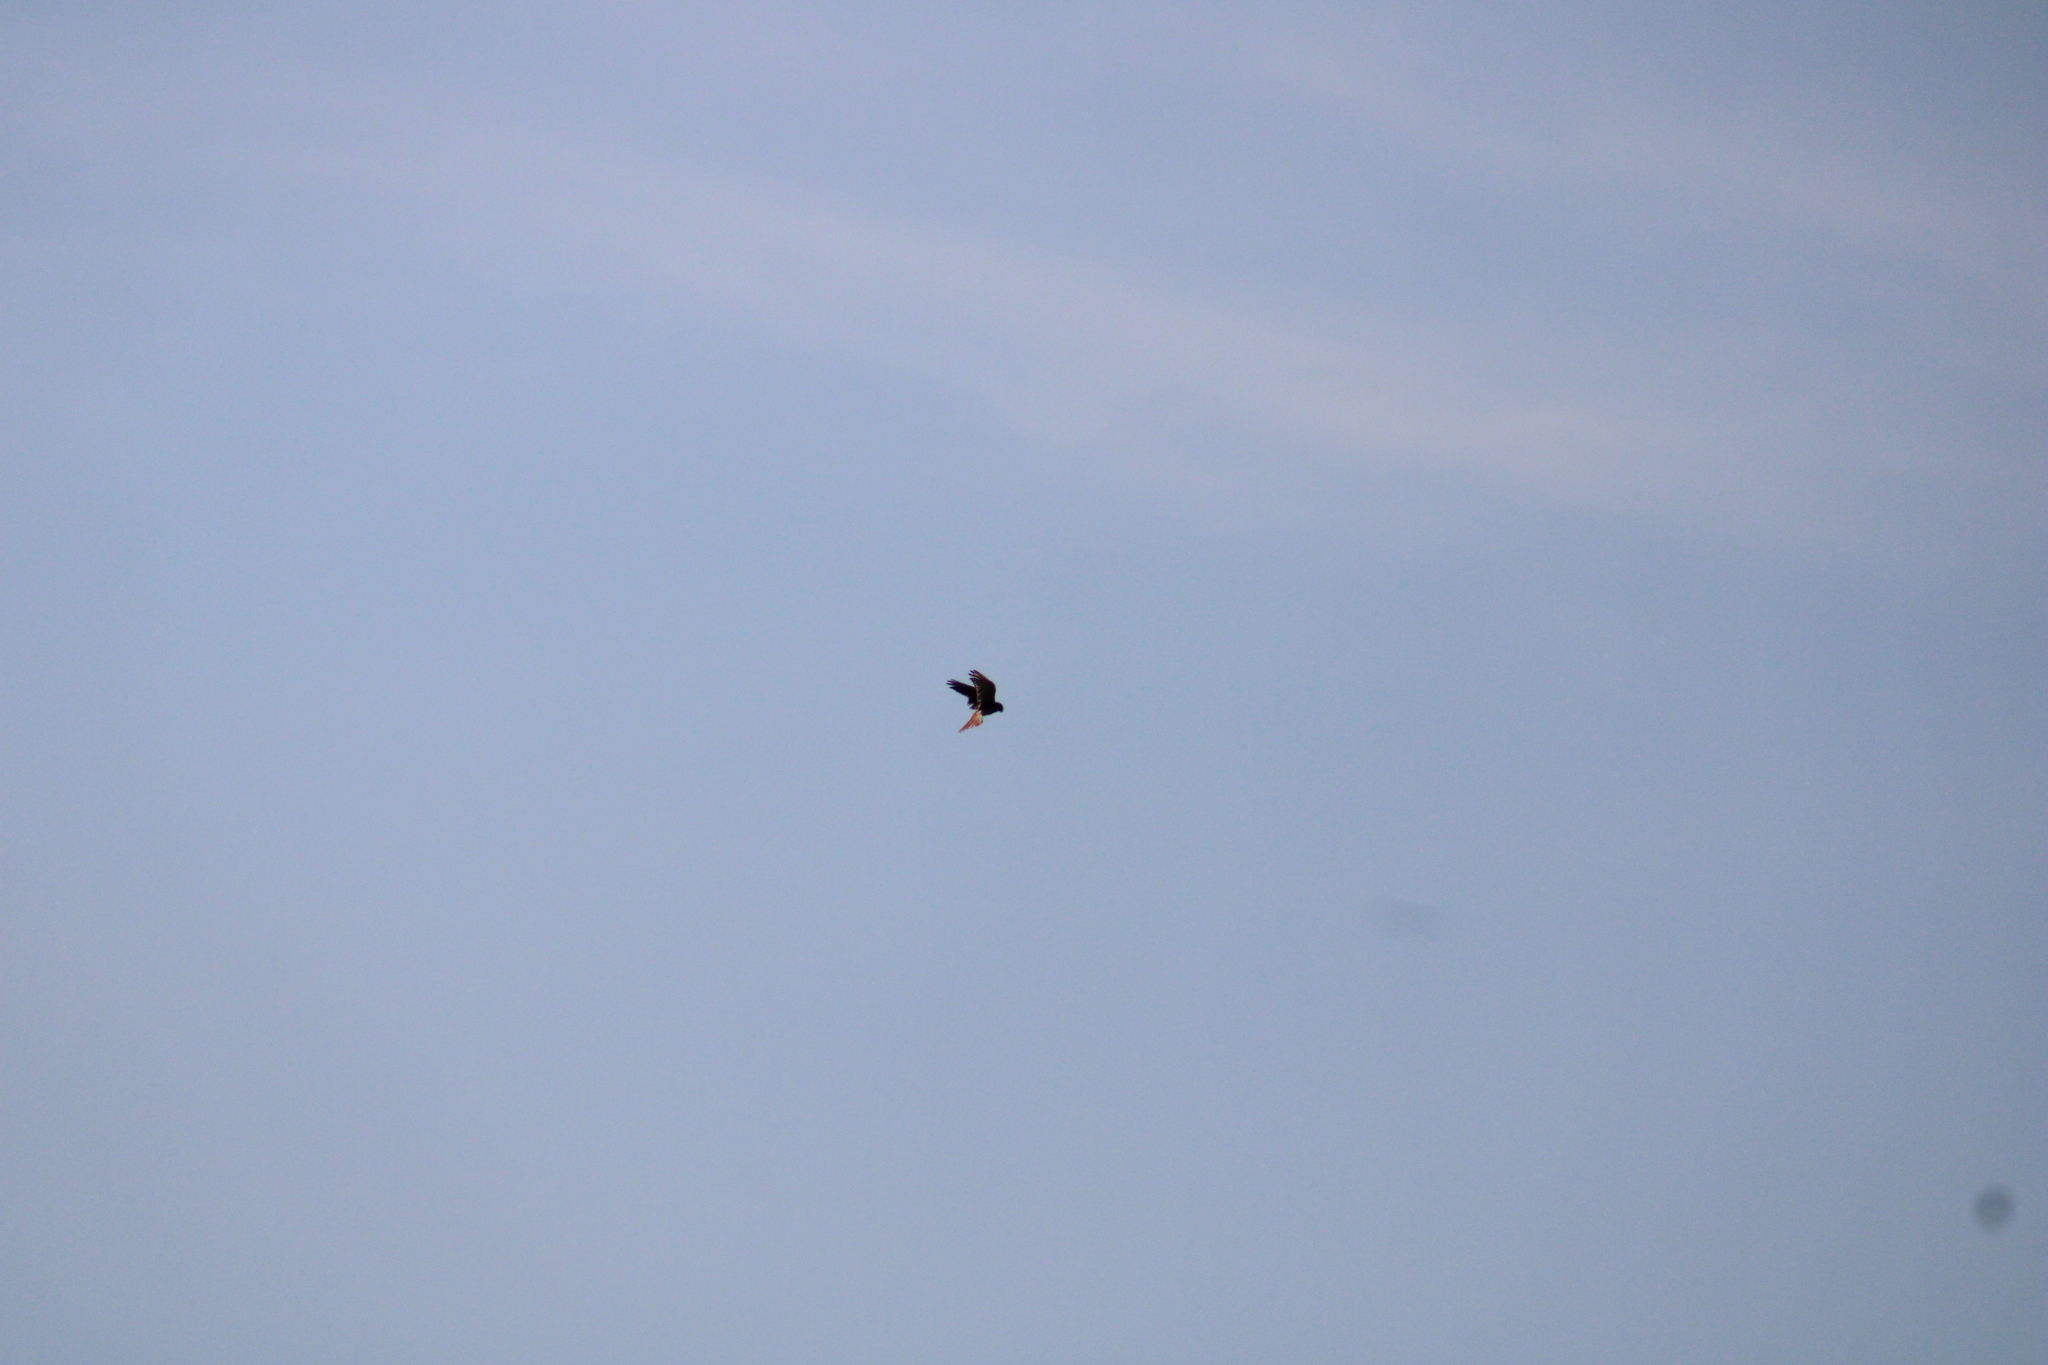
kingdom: Animalia
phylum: Chordata
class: Aves
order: Falconiformes
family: Falconidae
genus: Falco
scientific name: Falco sparverius
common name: American kestrel
